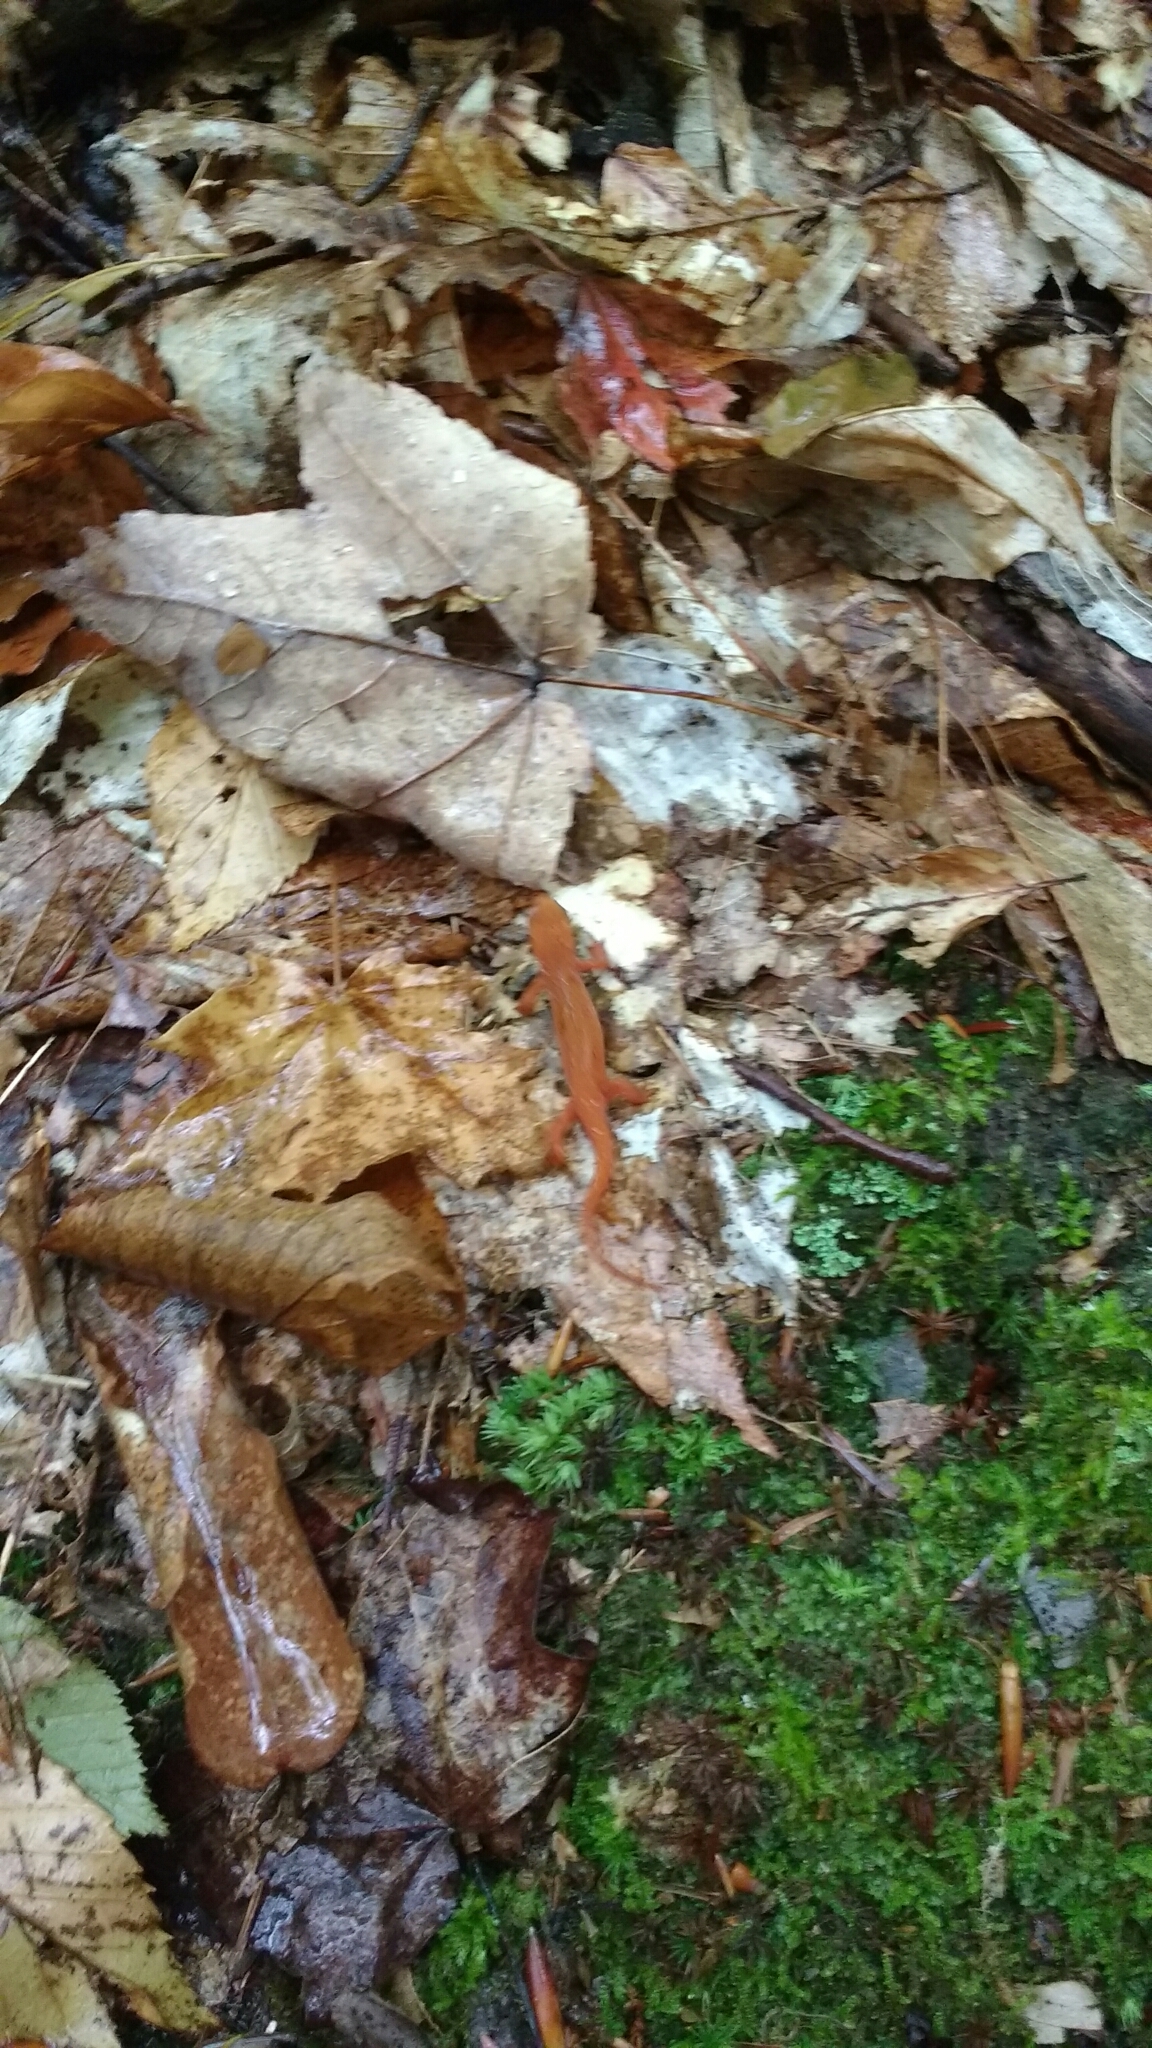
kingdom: Animalia
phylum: Chordata
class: Amphibia
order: Caudata
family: Salamandridae
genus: Notophthalmus
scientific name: Notophthalmus viridescens
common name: Eastern newt
